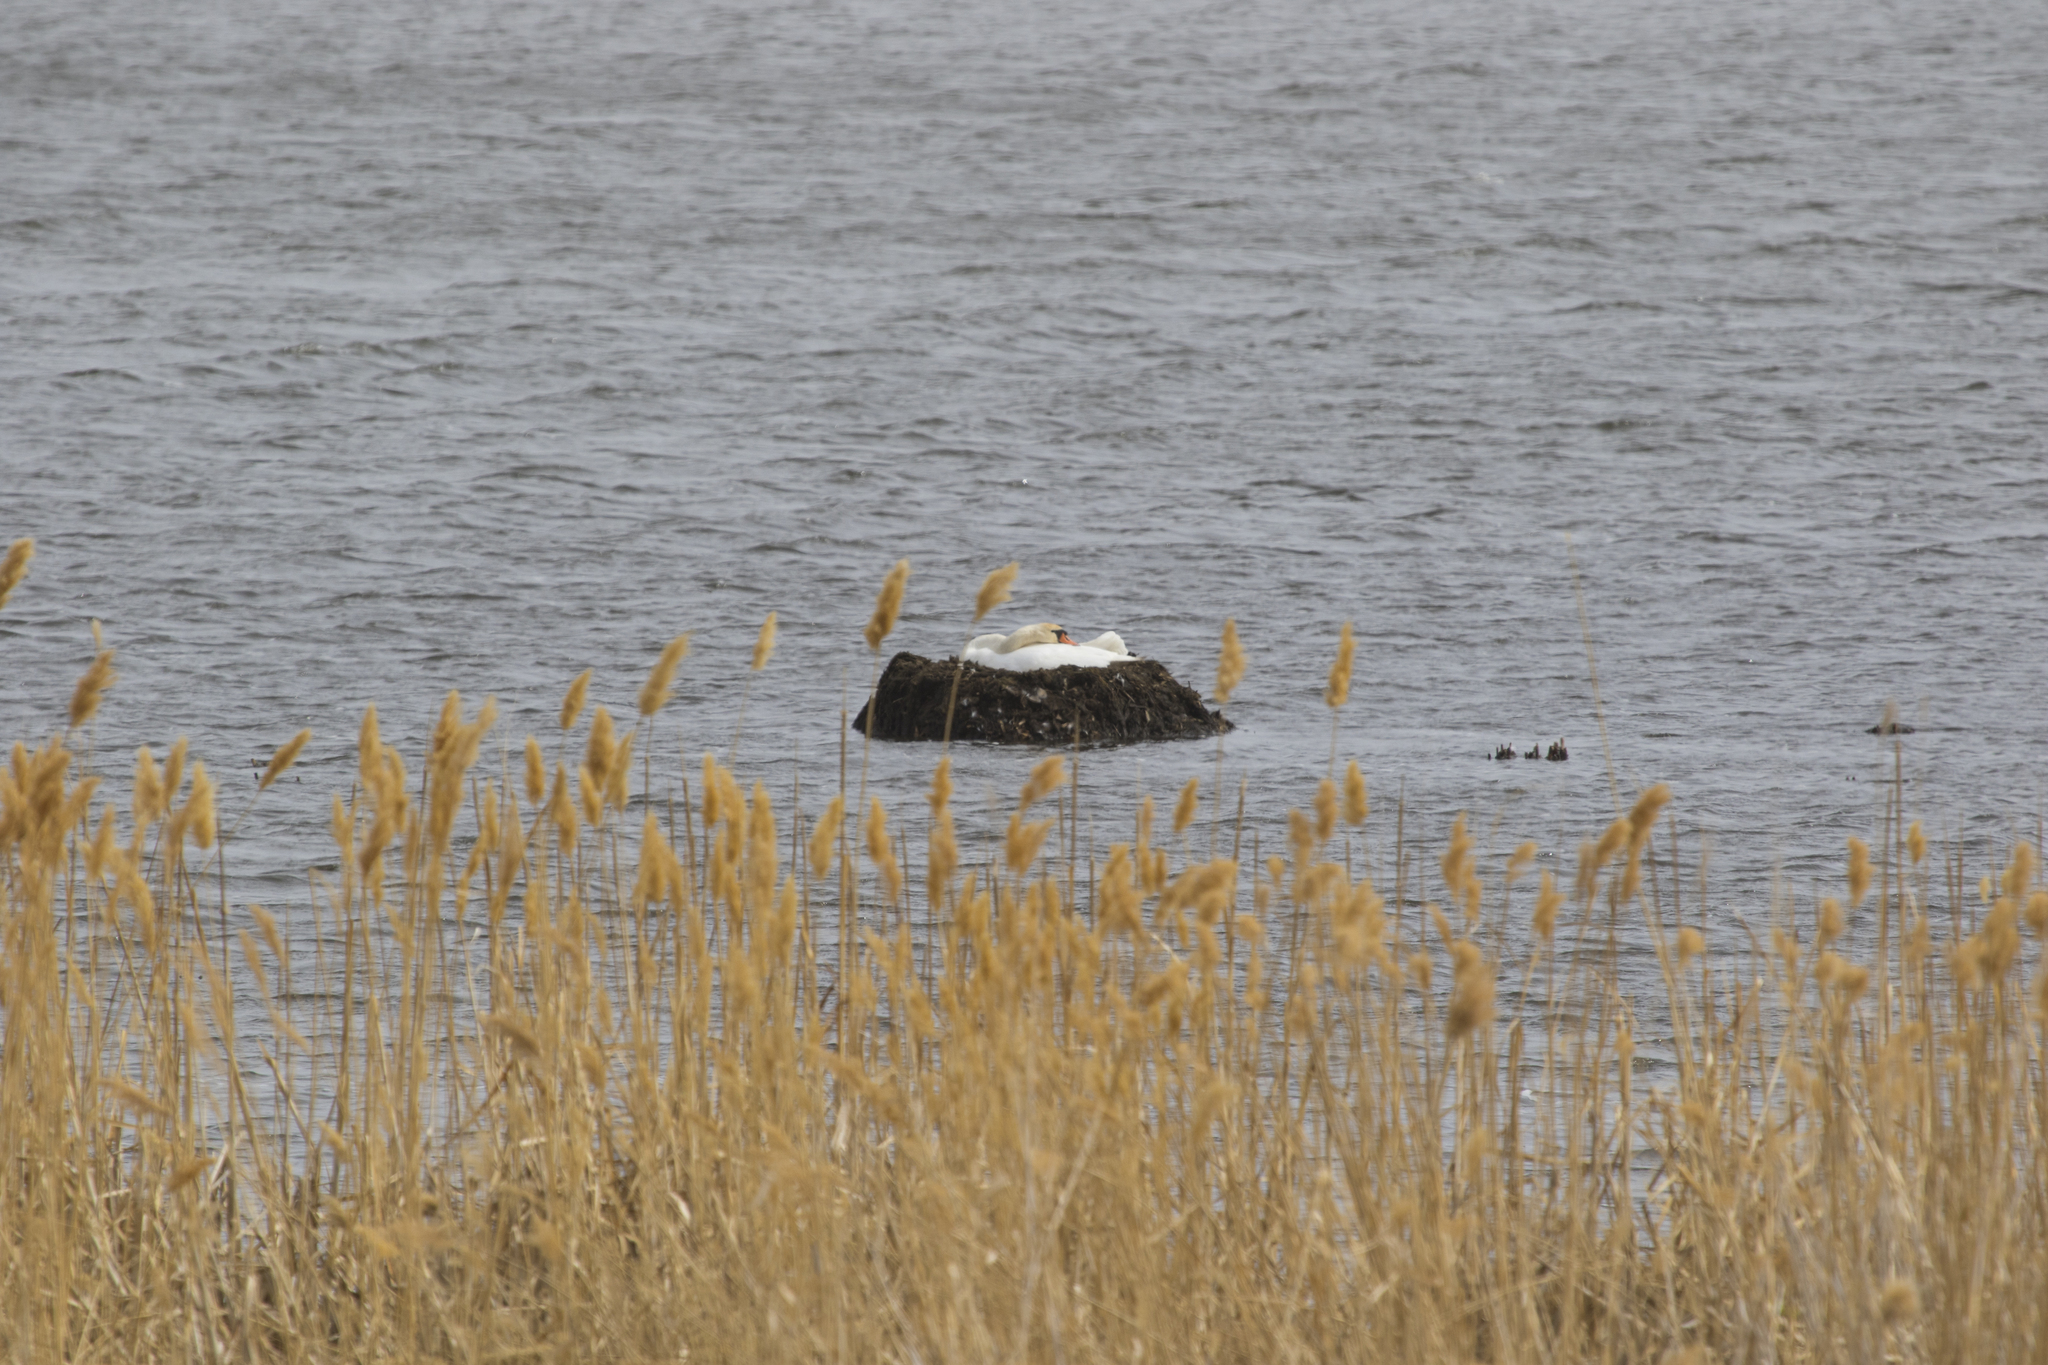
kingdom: Animalia
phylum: Chordata
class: Aves
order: Anseriformes
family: Anatidae
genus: Cygnus
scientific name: Cygnus olor
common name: Mute swan
